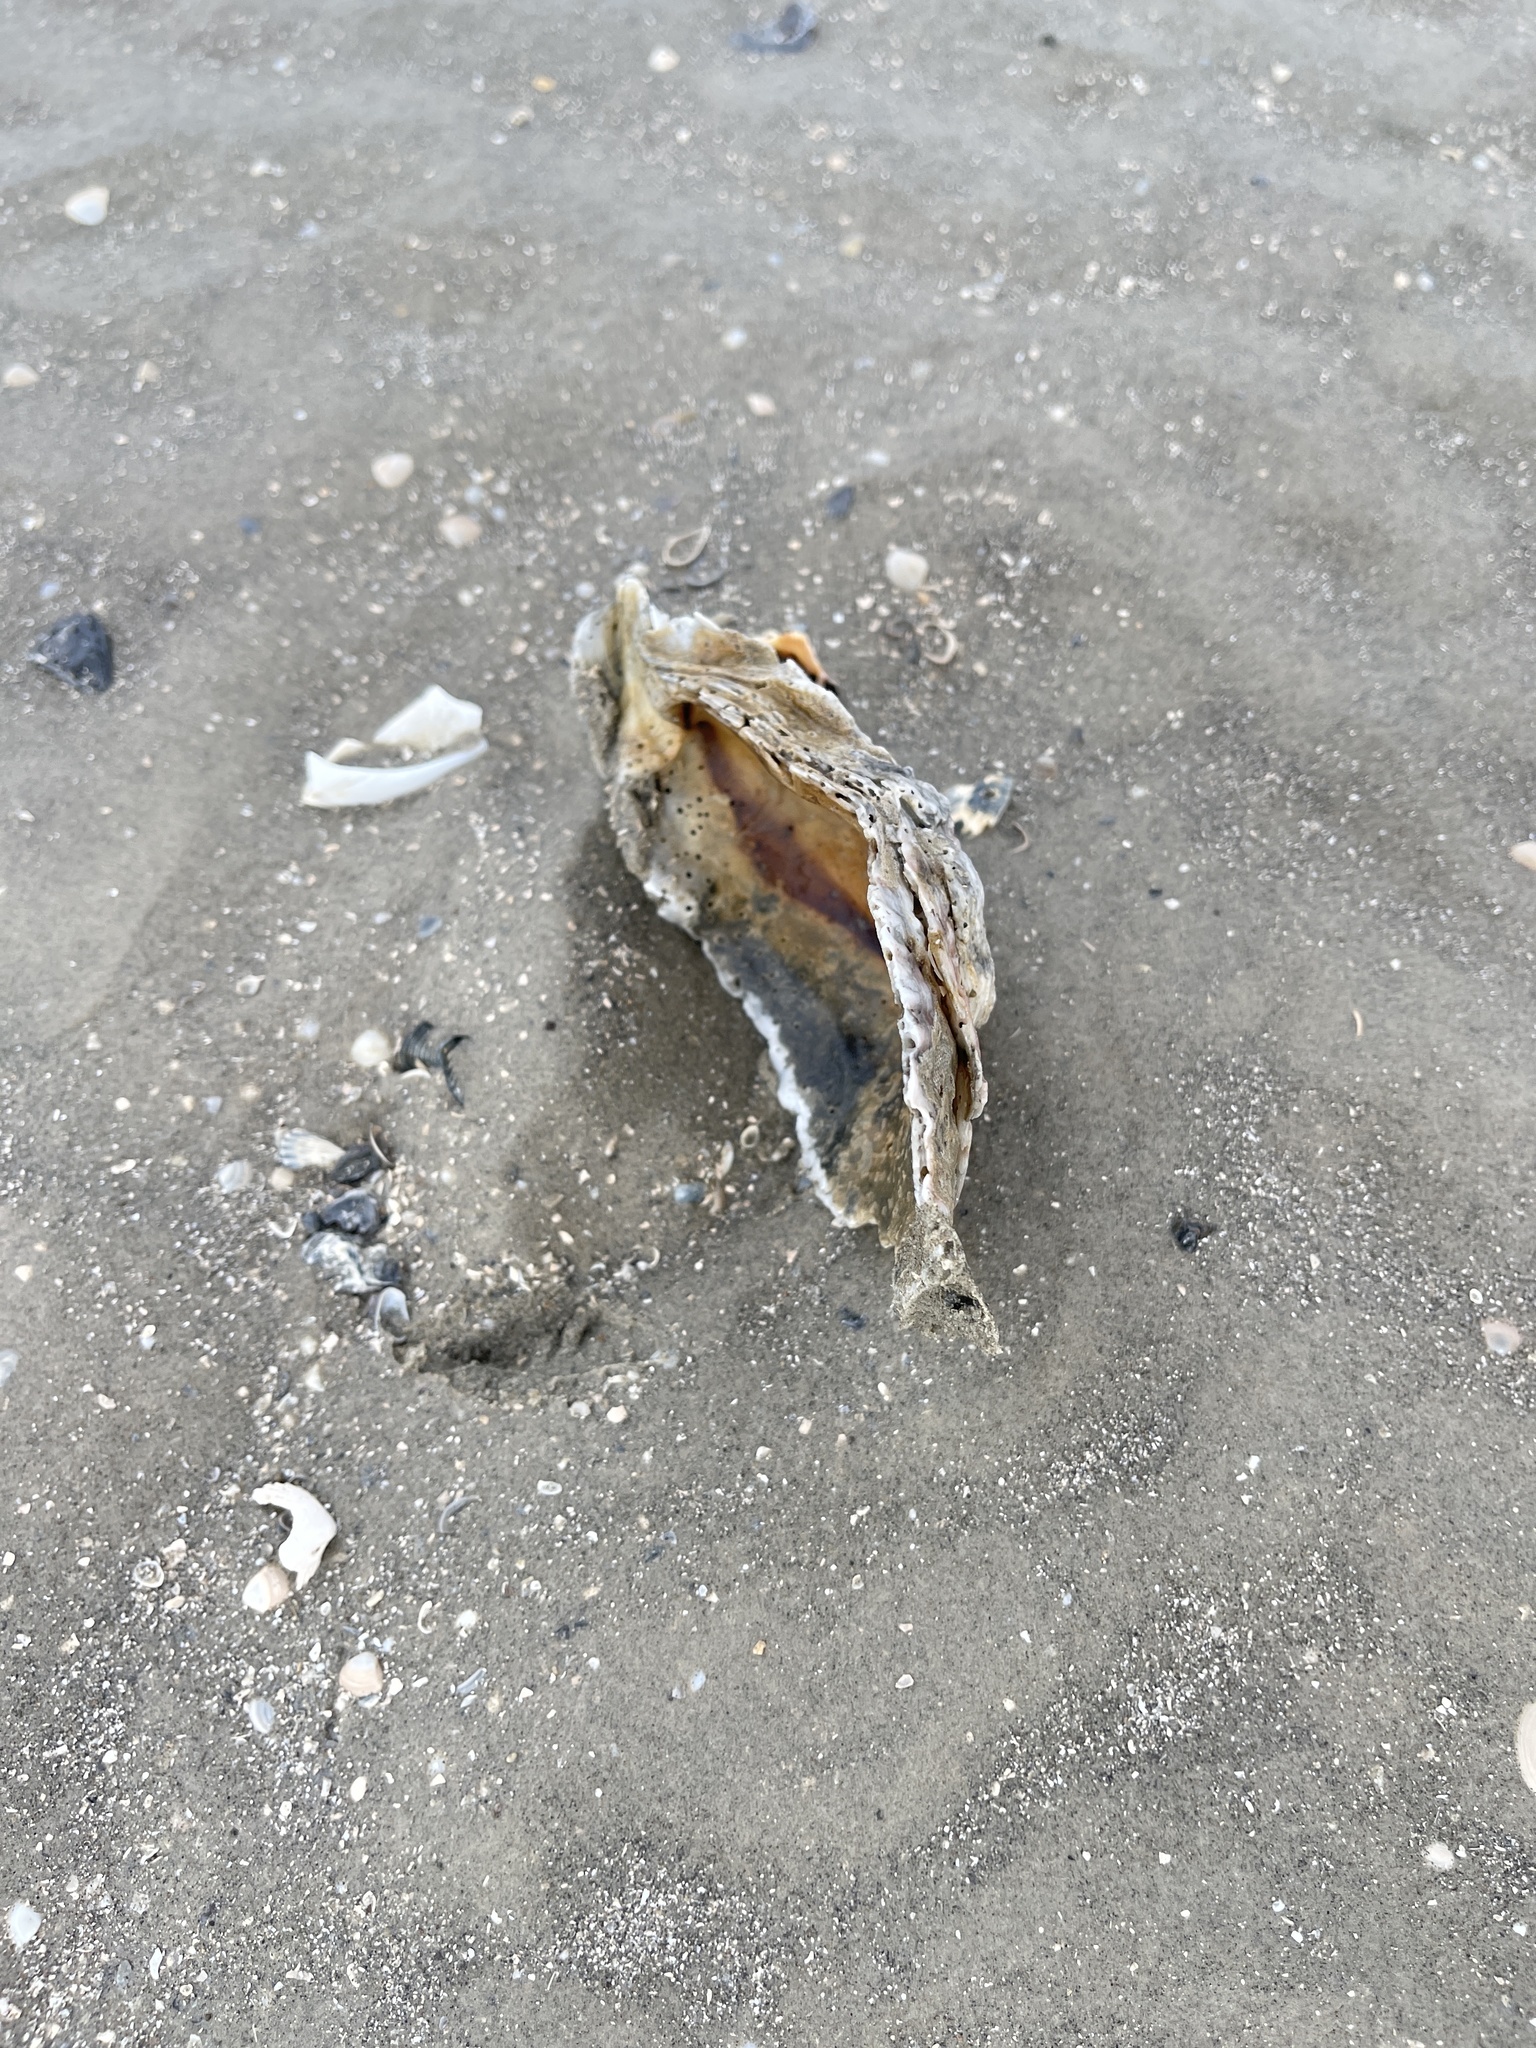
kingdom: Animalia
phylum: Mollusca
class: Bivalvia
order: Ostreida
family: Ostreidae
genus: Crassostrea
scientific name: Crassostrea virginica
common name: American oyster
